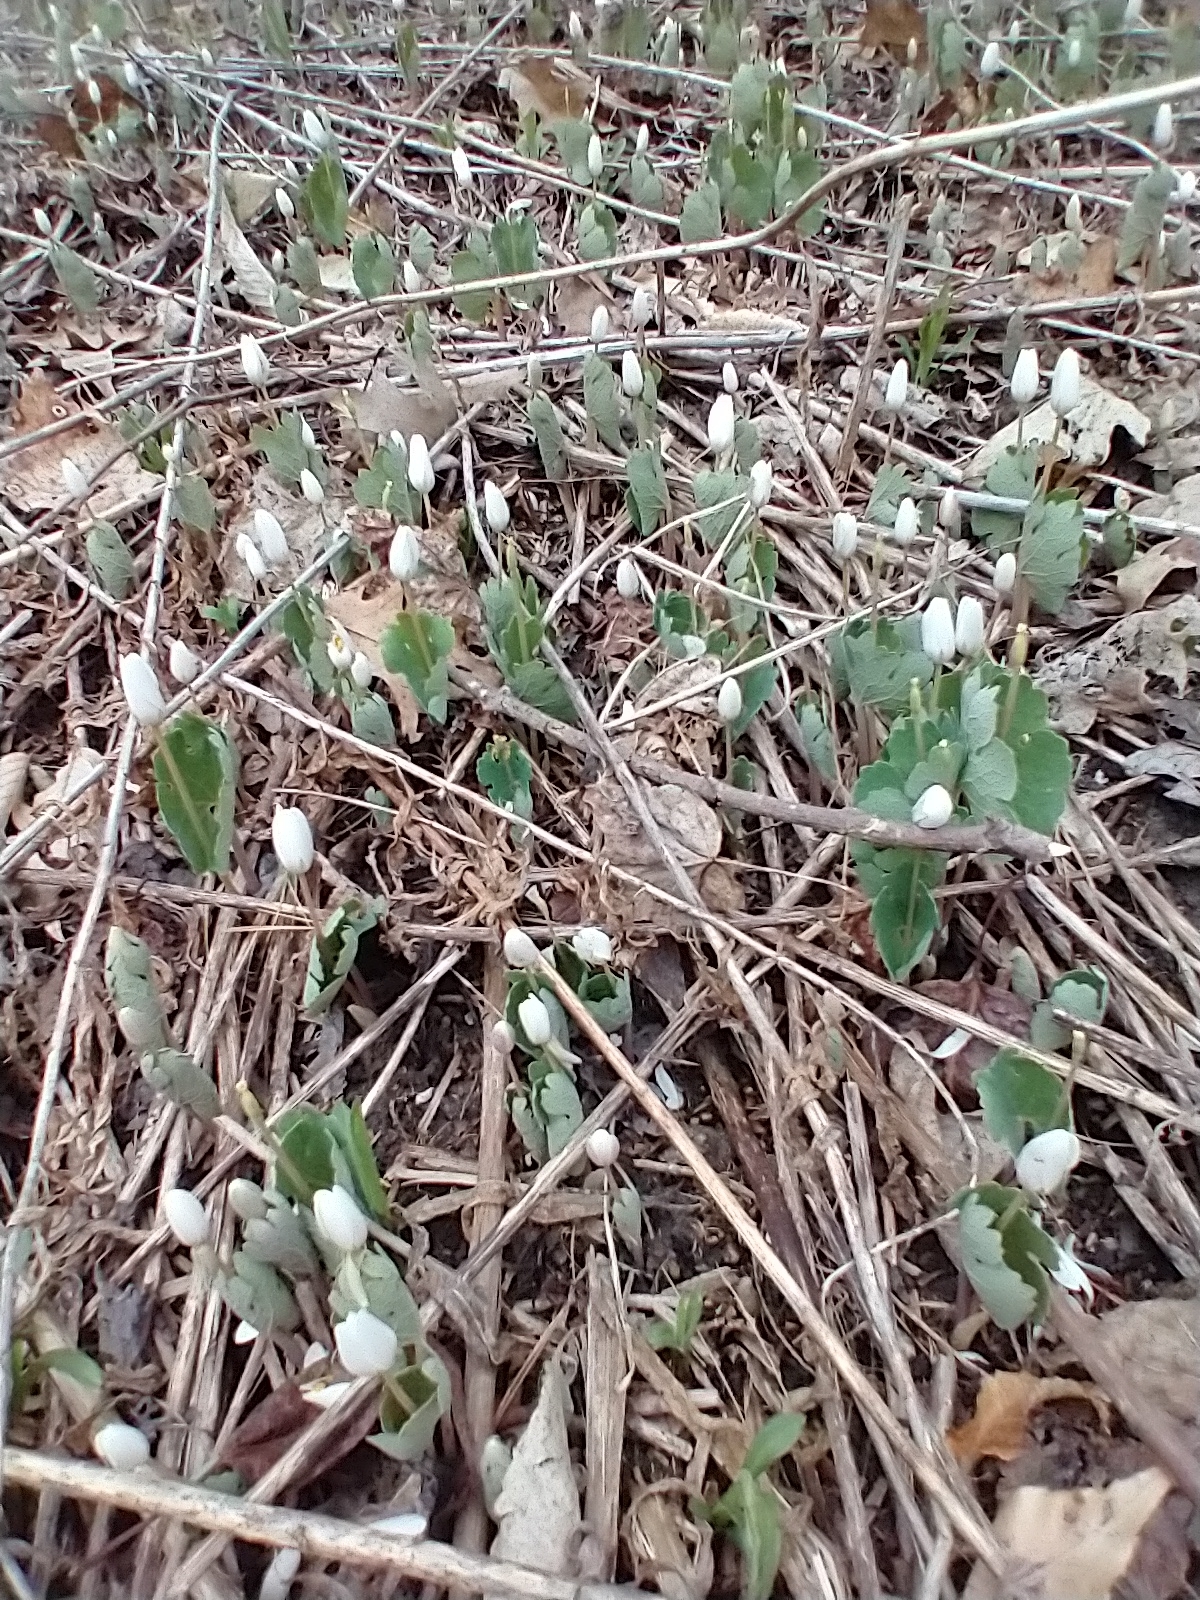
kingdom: Plantae
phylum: Tracheophyta
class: Magnoliopsida
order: Ranunculales
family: Papaveraceae
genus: Sanguinaria
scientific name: Sanguinaria canadensis
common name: Bloodroot
